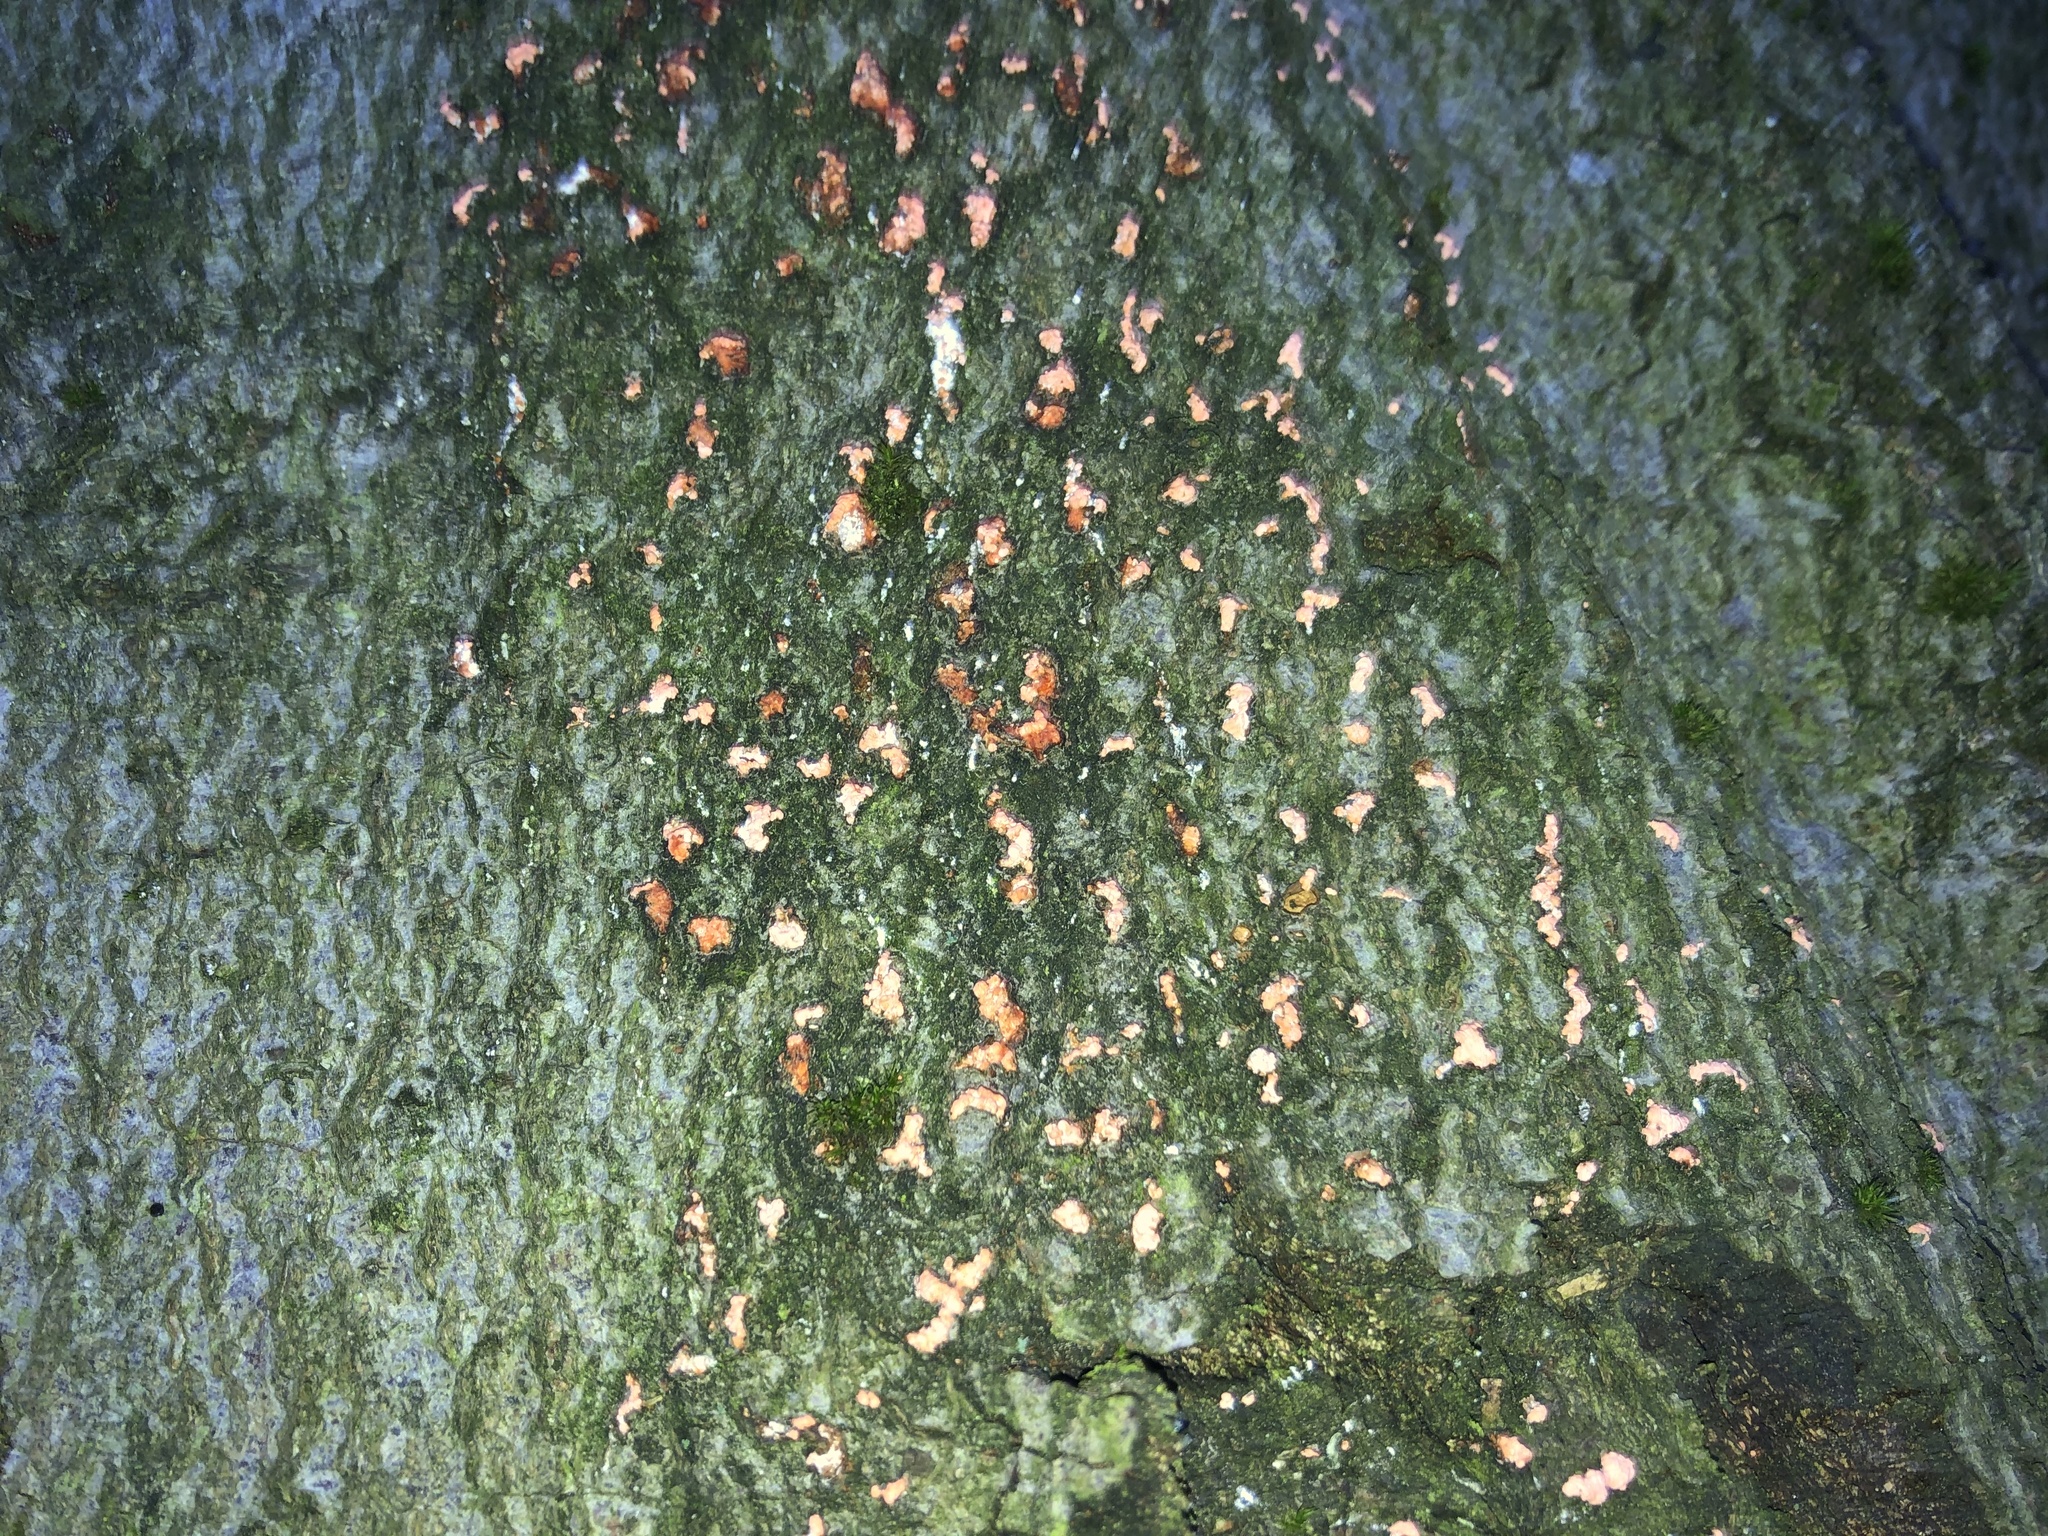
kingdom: Fungi
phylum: Ascomycota
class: Sordariomycetes
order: Hypocreales
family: Nectriaceae
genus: Nectria
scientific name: Nectria cinnabarina
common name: Coral spot
